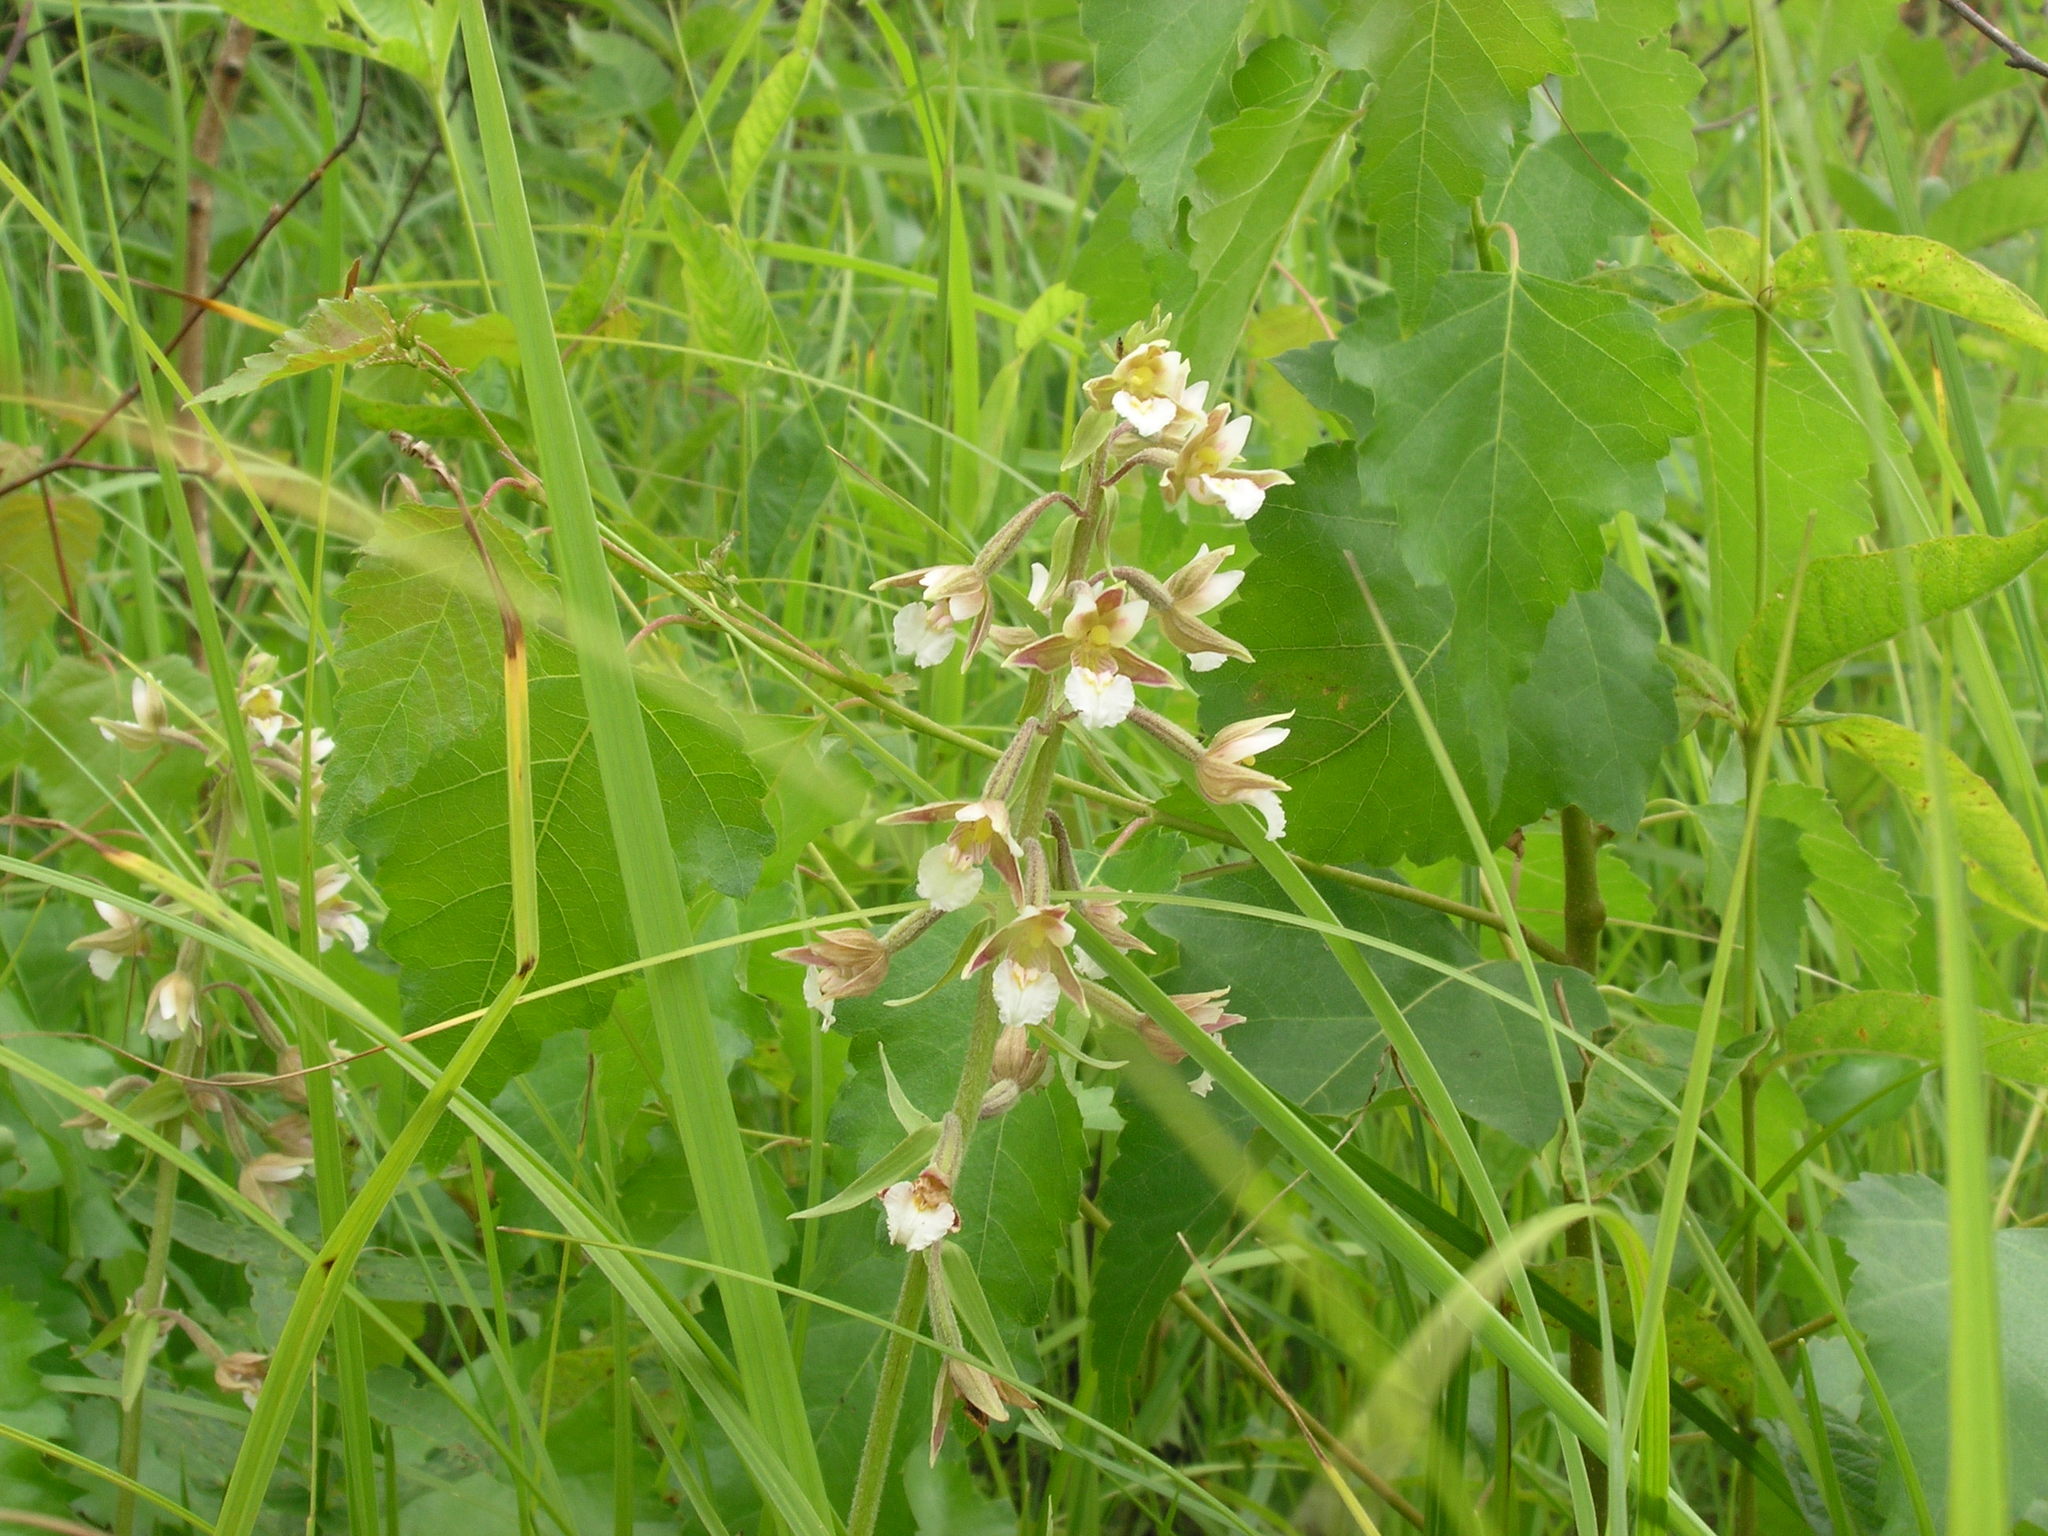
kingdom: Plantae
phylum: Tracheophyta
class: Liliopsida
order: Asparagales
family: Orchidaceae
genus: Epipactis
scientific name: Epipactis palustris
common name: Marsh helleborine
